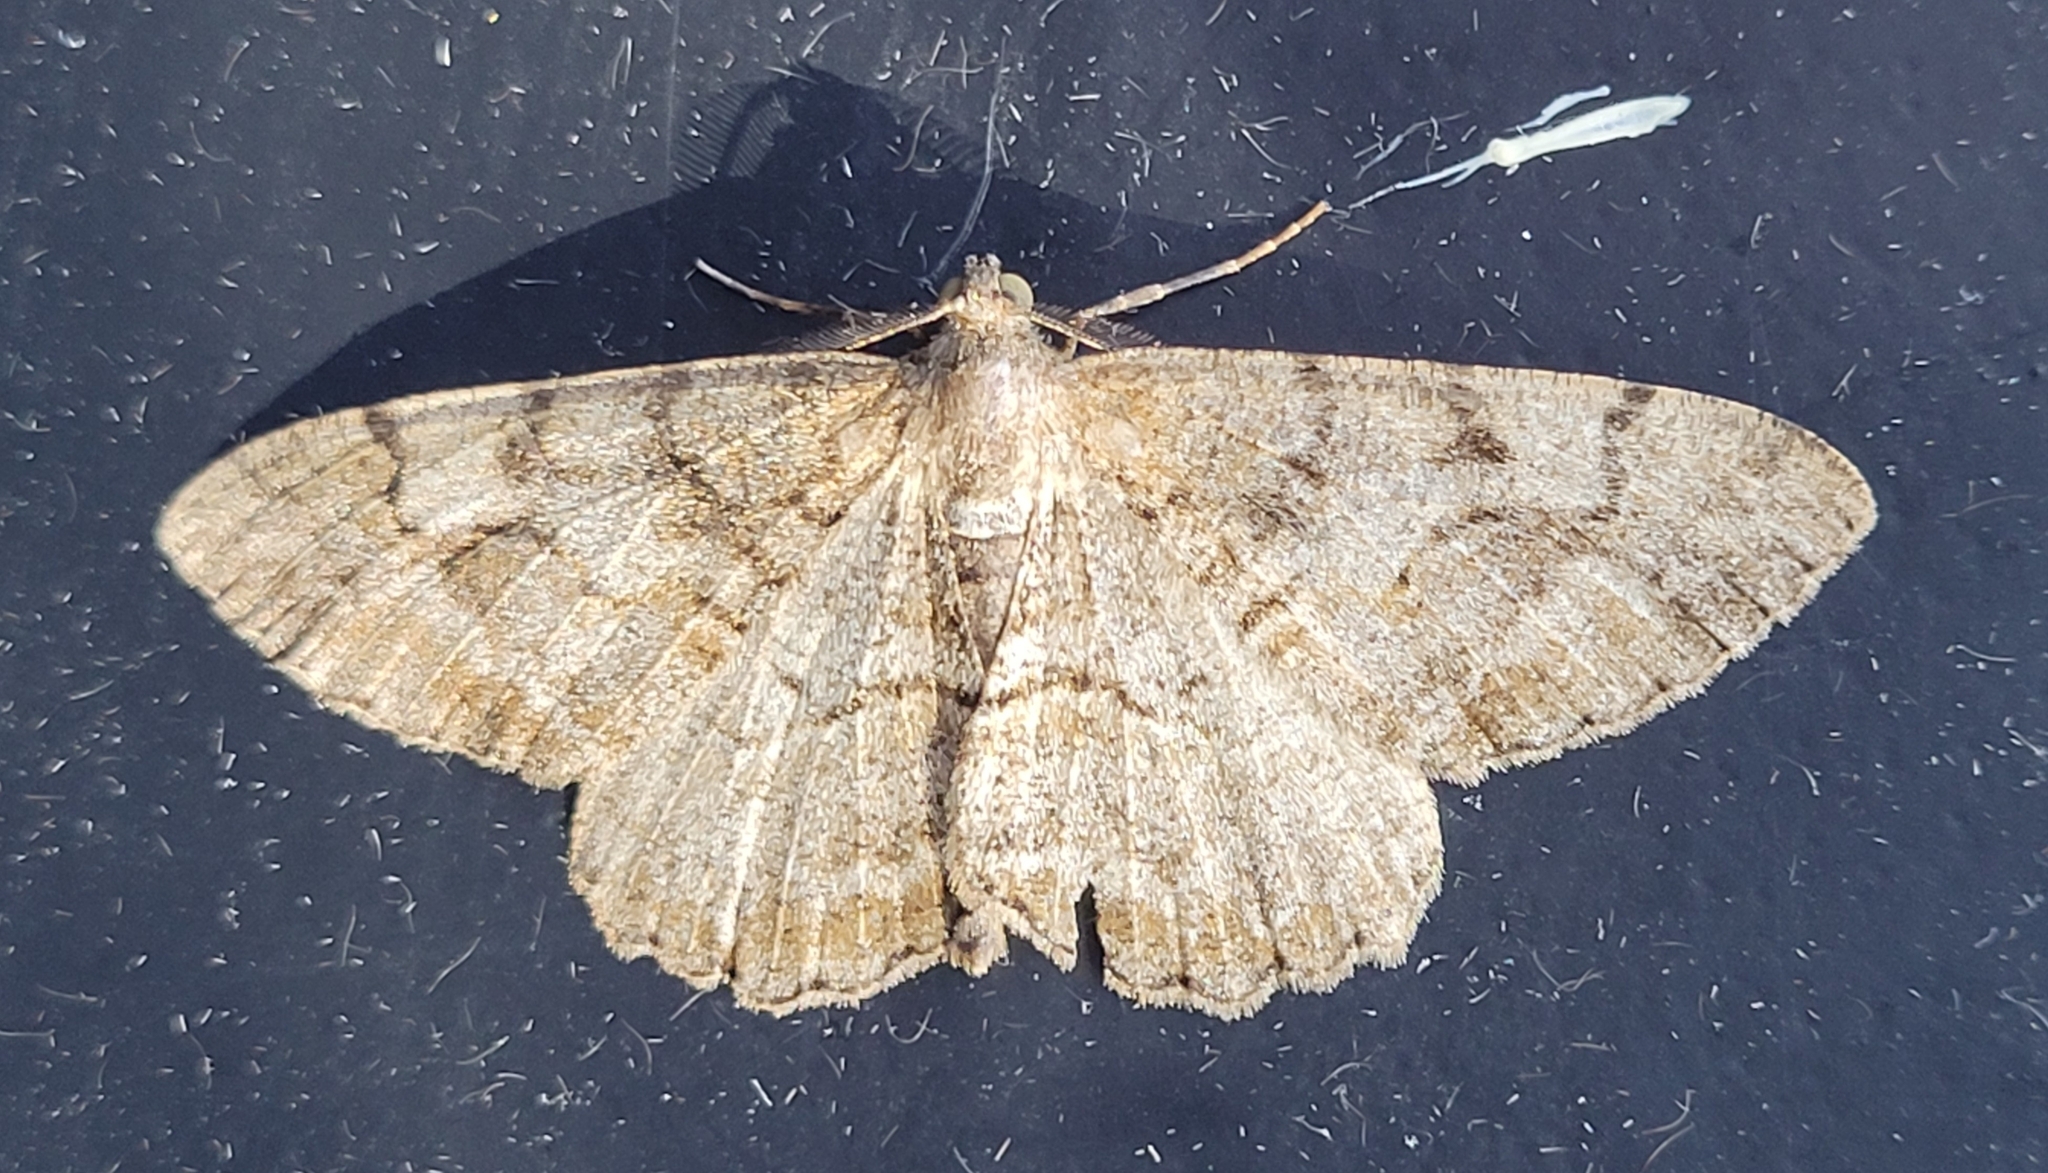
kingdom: Animalia
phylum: Arthropoda
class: Insecta
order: Lepidoptera
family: Geometridae
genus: Alcis
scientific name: Alcis repandata
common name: Mottled beauty
